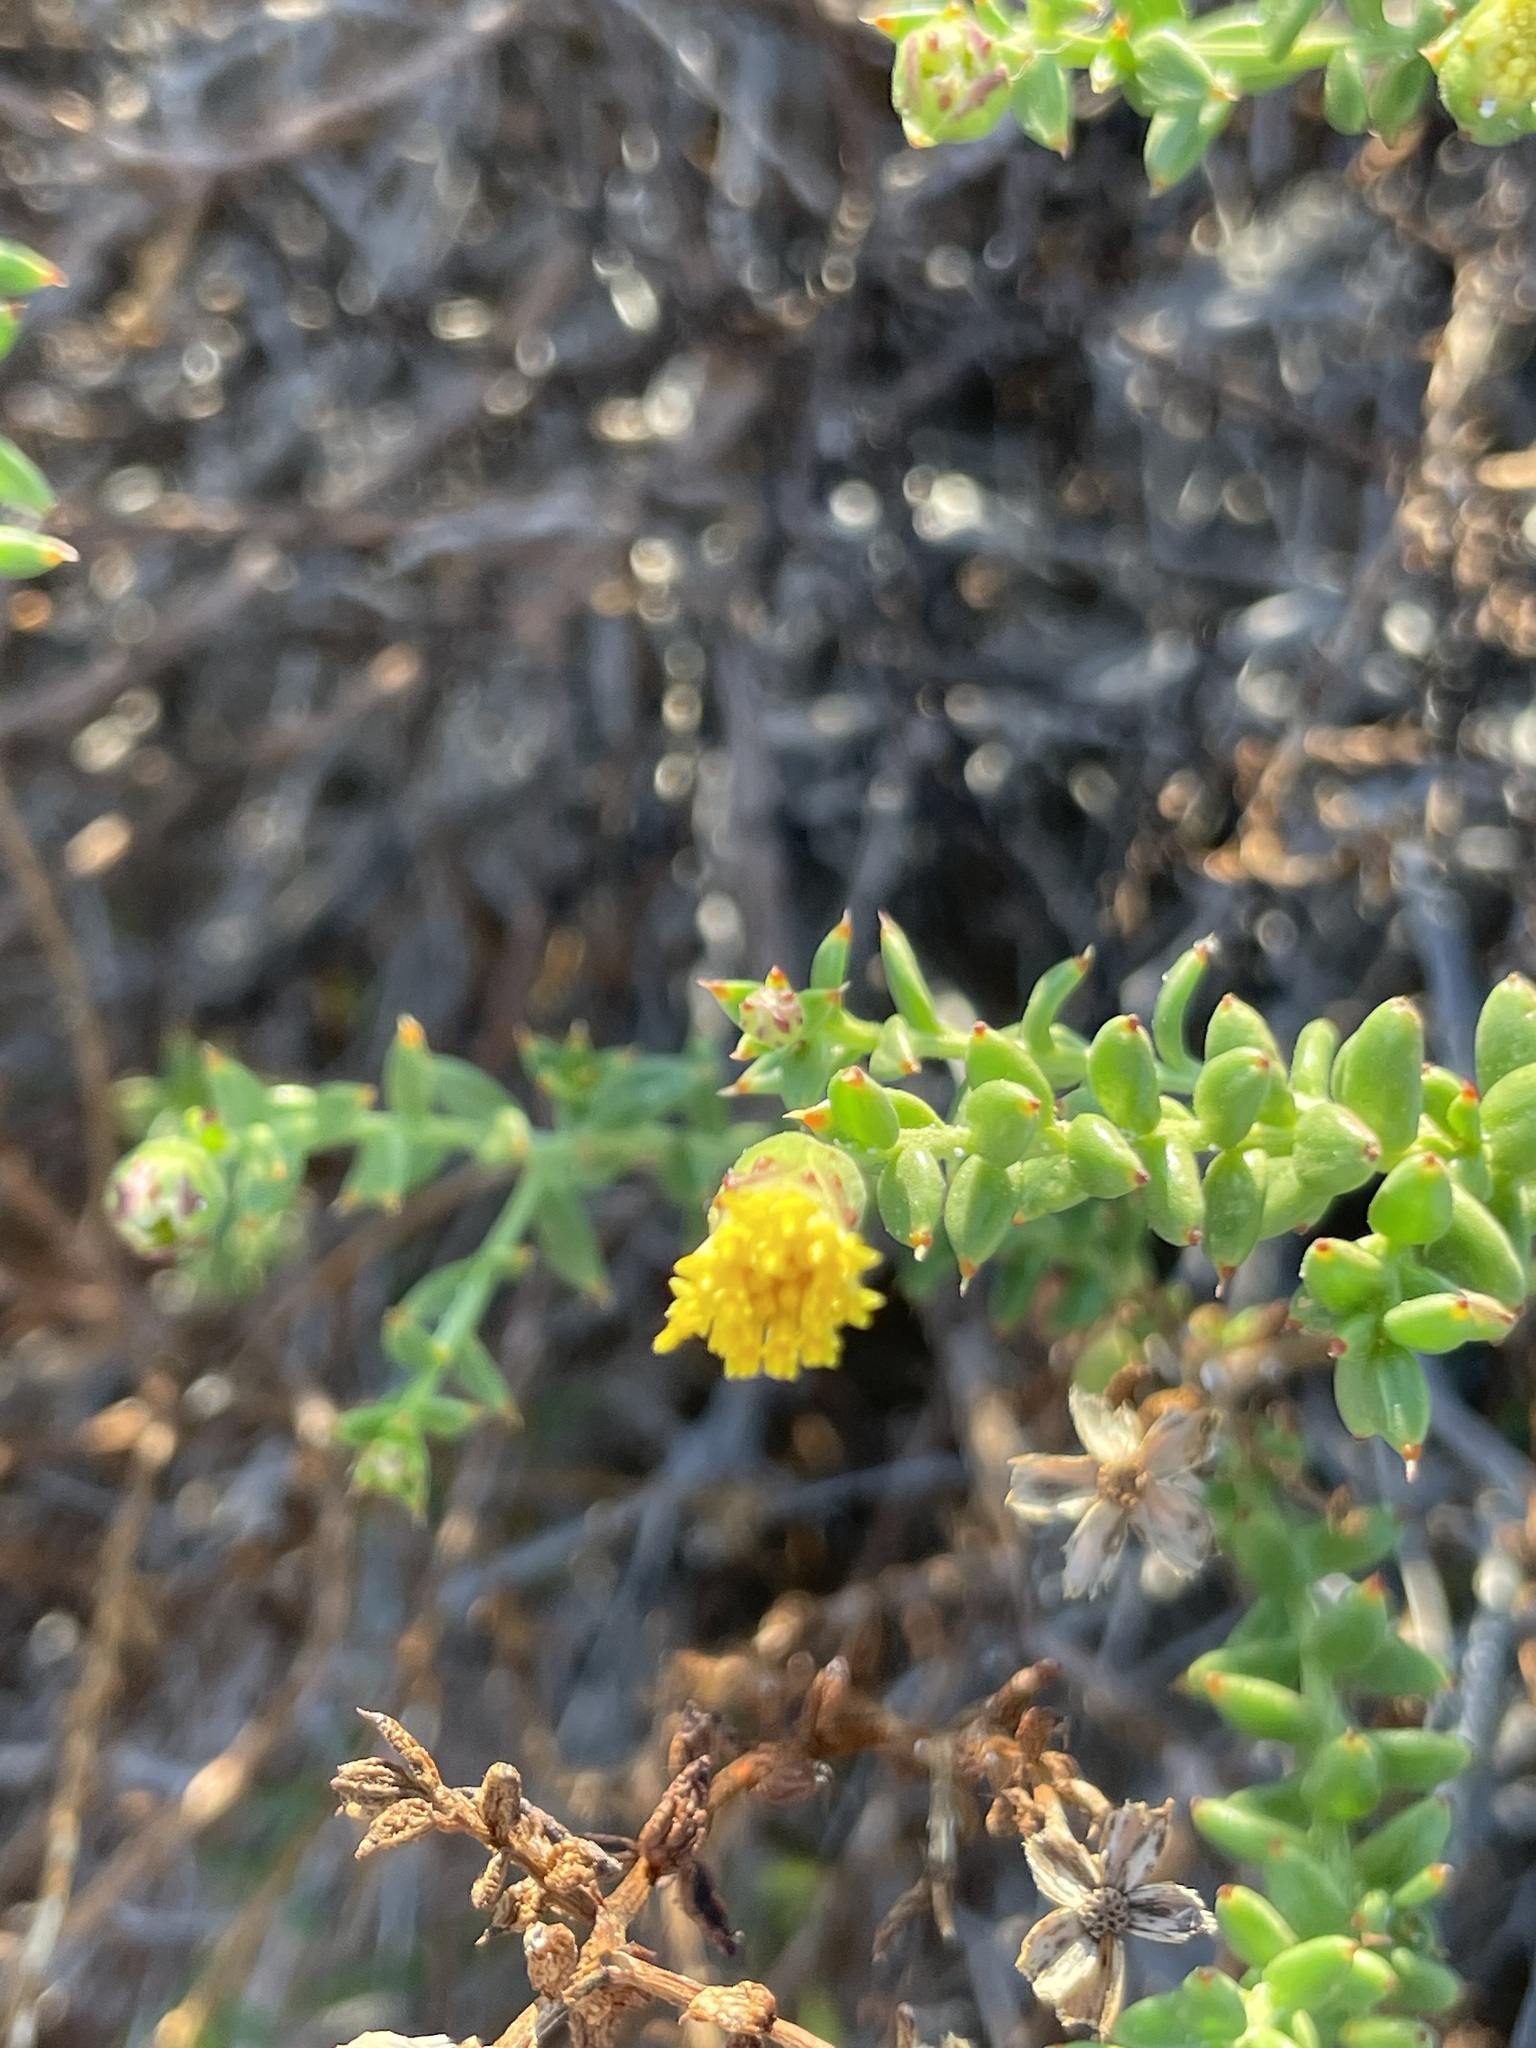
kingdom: Plantae
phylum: Tracheophyta
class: Magnoliopsida
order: Asterales
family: Asteraceae
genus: Bajacalia
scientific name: Bajacalia crassifolia
